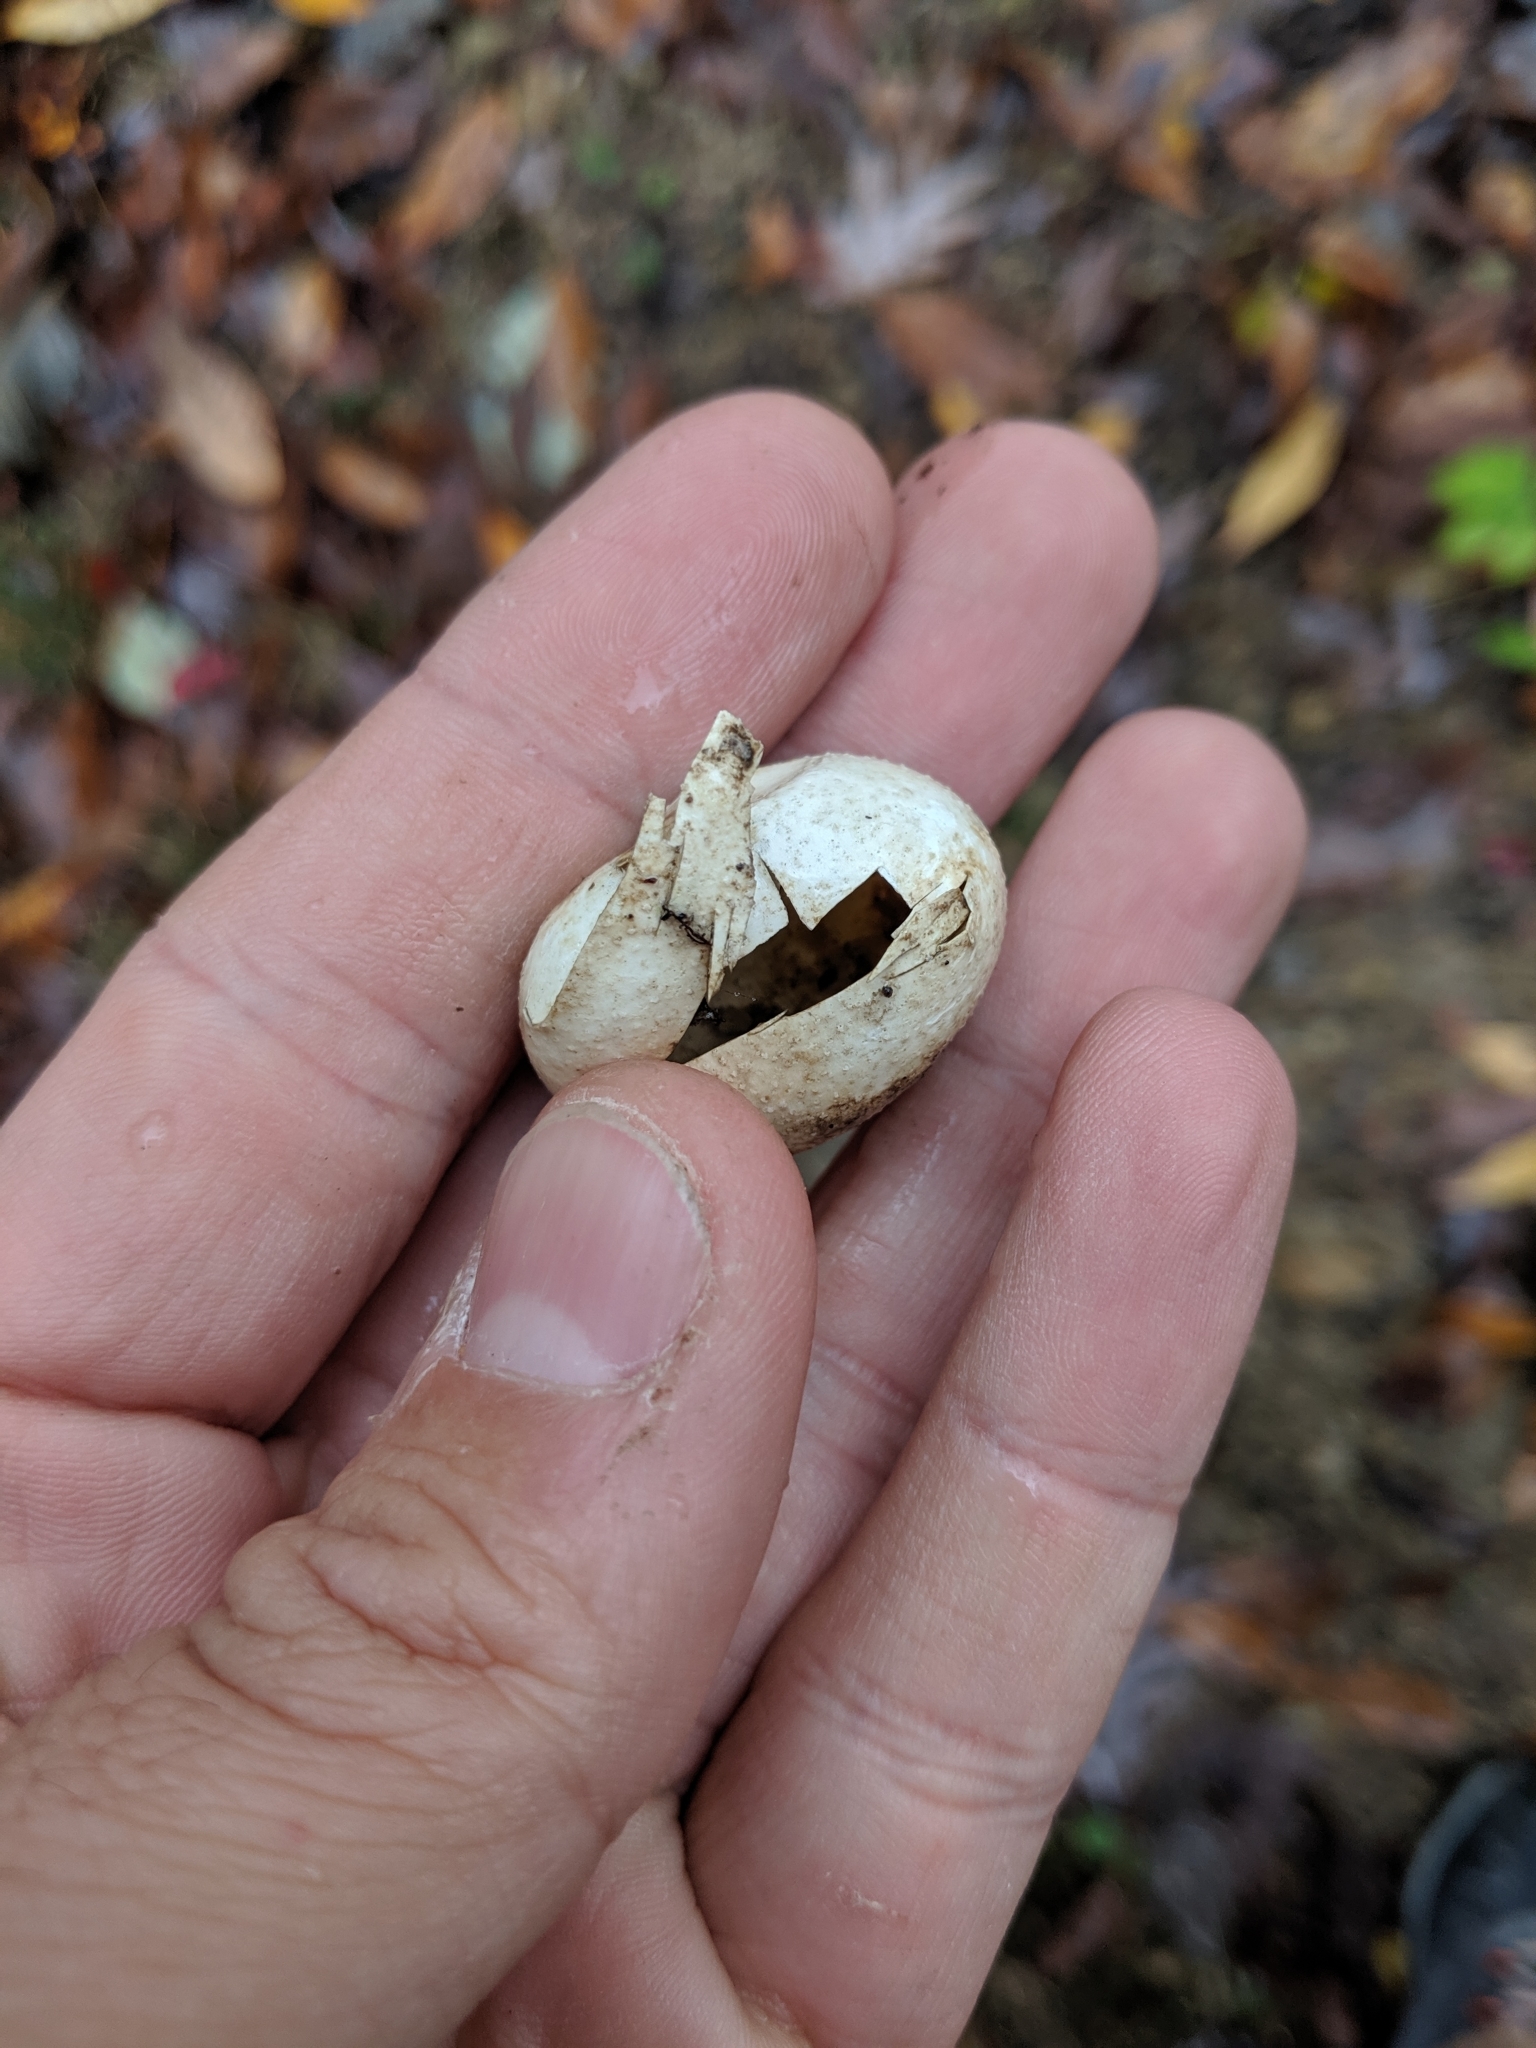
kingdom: Animalia
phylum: Chordata
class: Squamata
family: Colubridae
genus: Coluber
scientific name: Coluber constrictor
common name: Eastern racer
